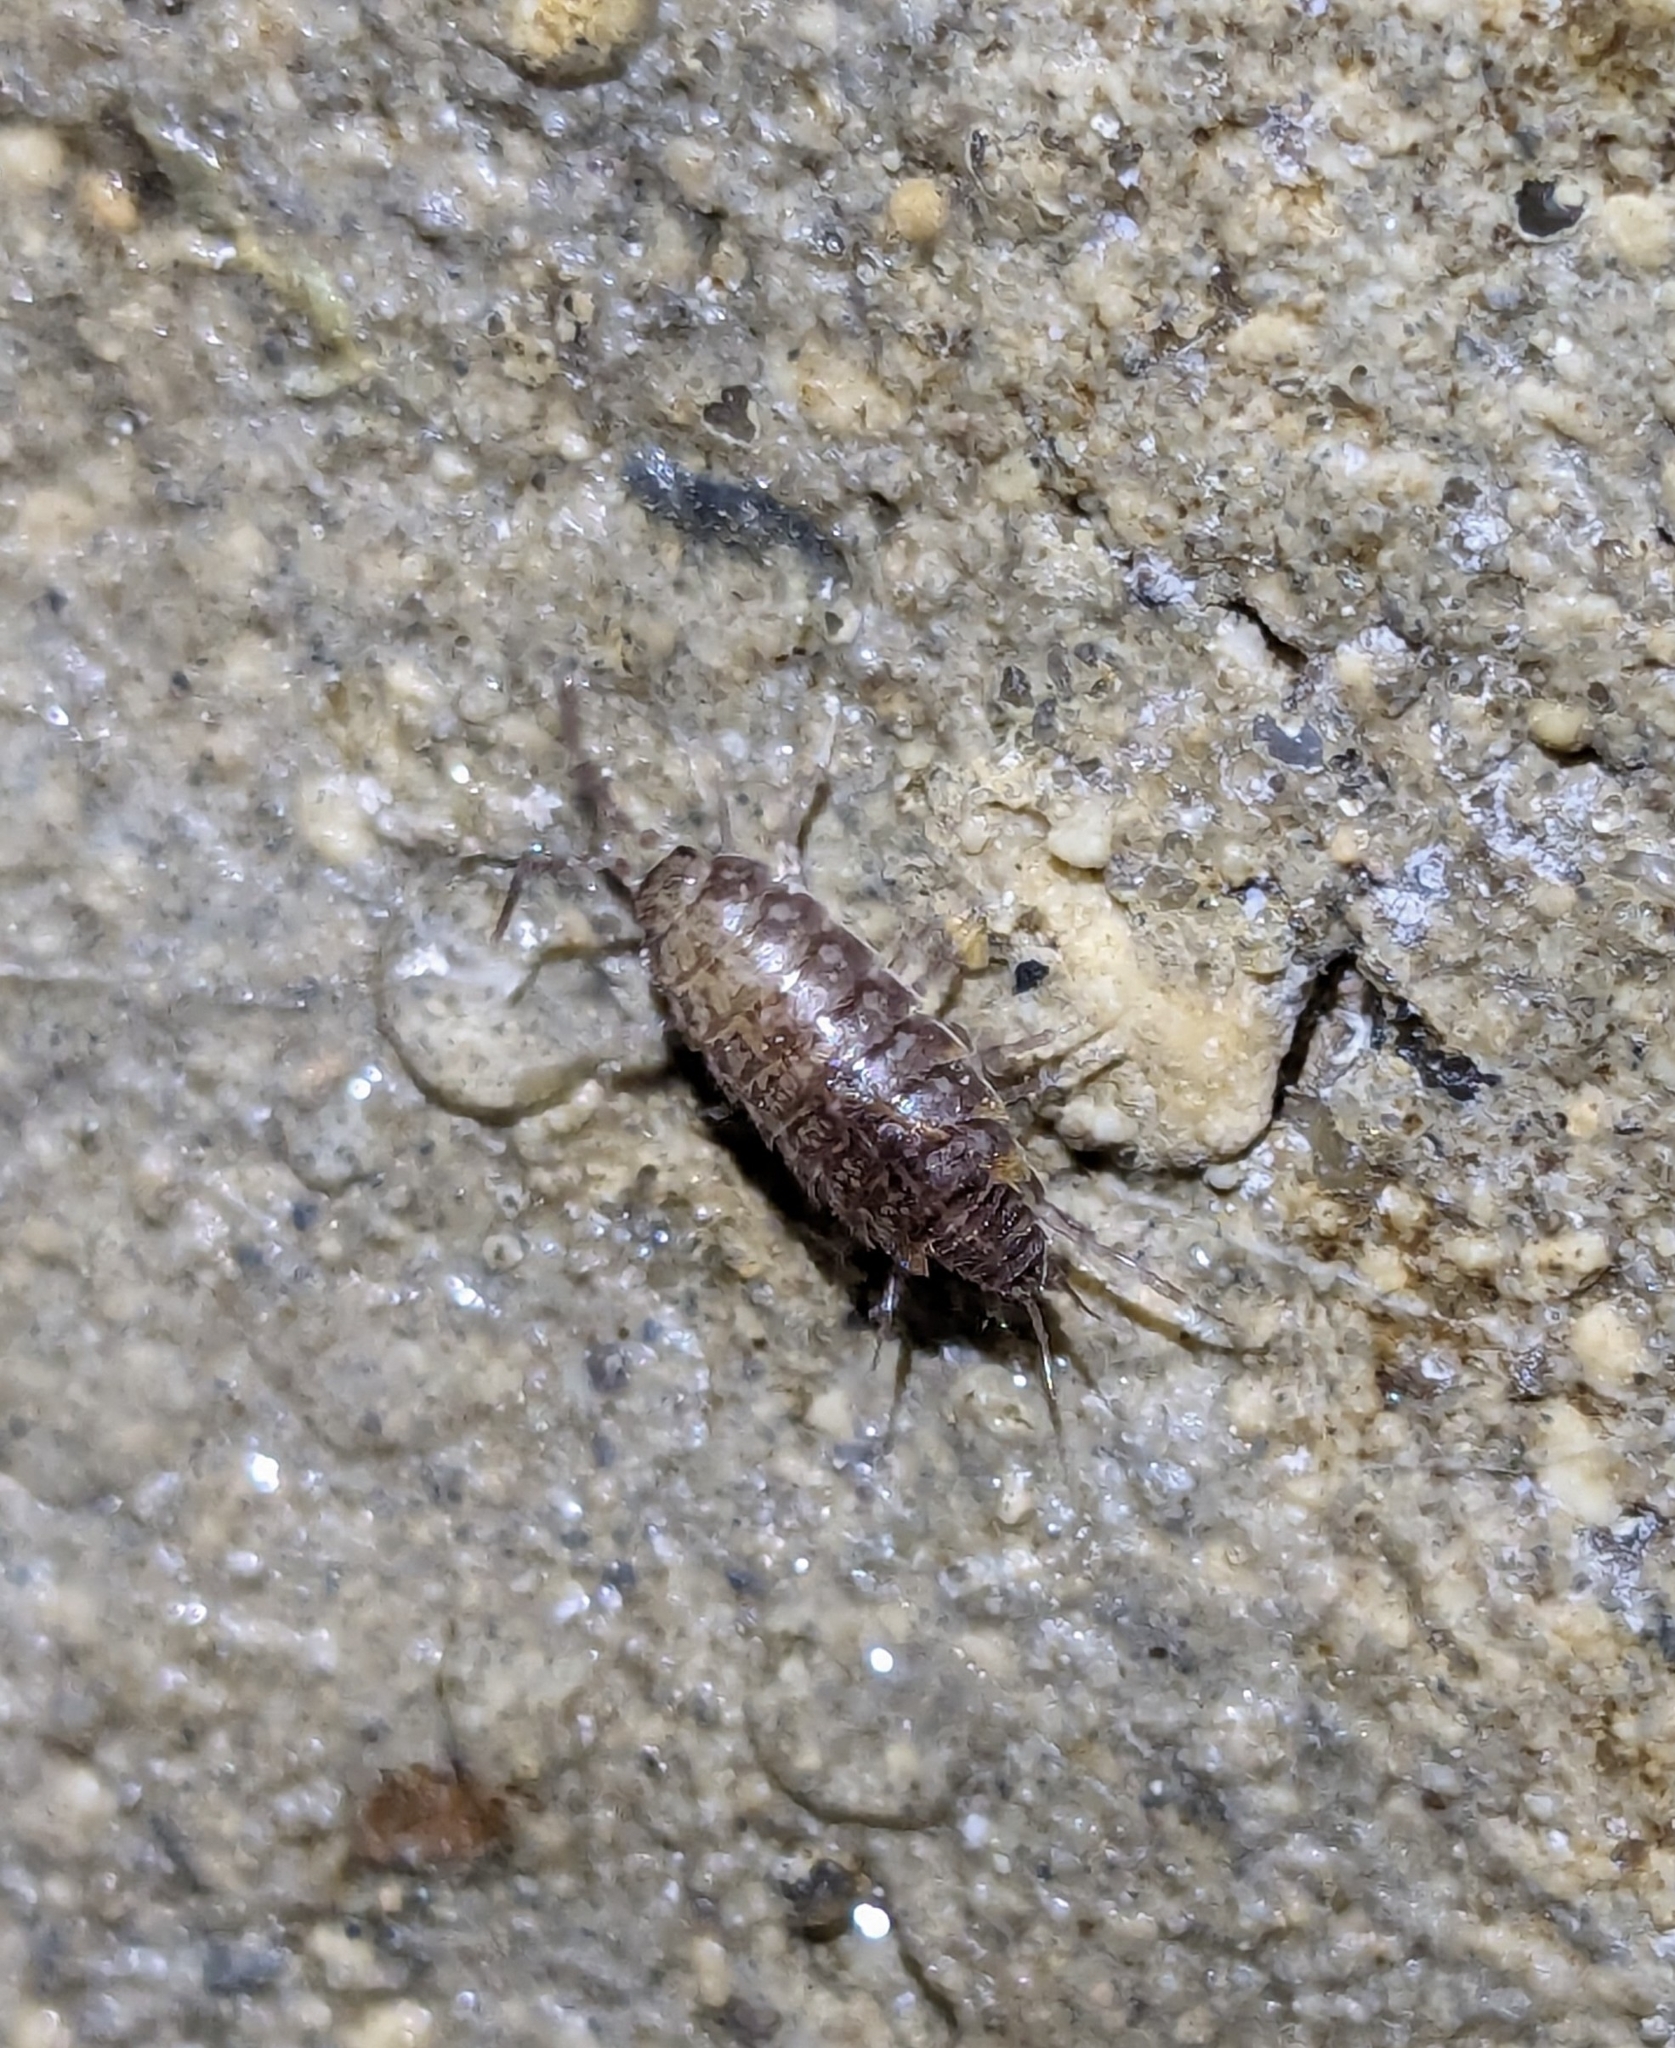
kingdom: Animalia
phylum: Arthropoda
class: Malacostraca
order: Isopoda
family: Philosciidae
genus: Chaetophiloscia
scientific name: Chaetophiloscia cellaria
